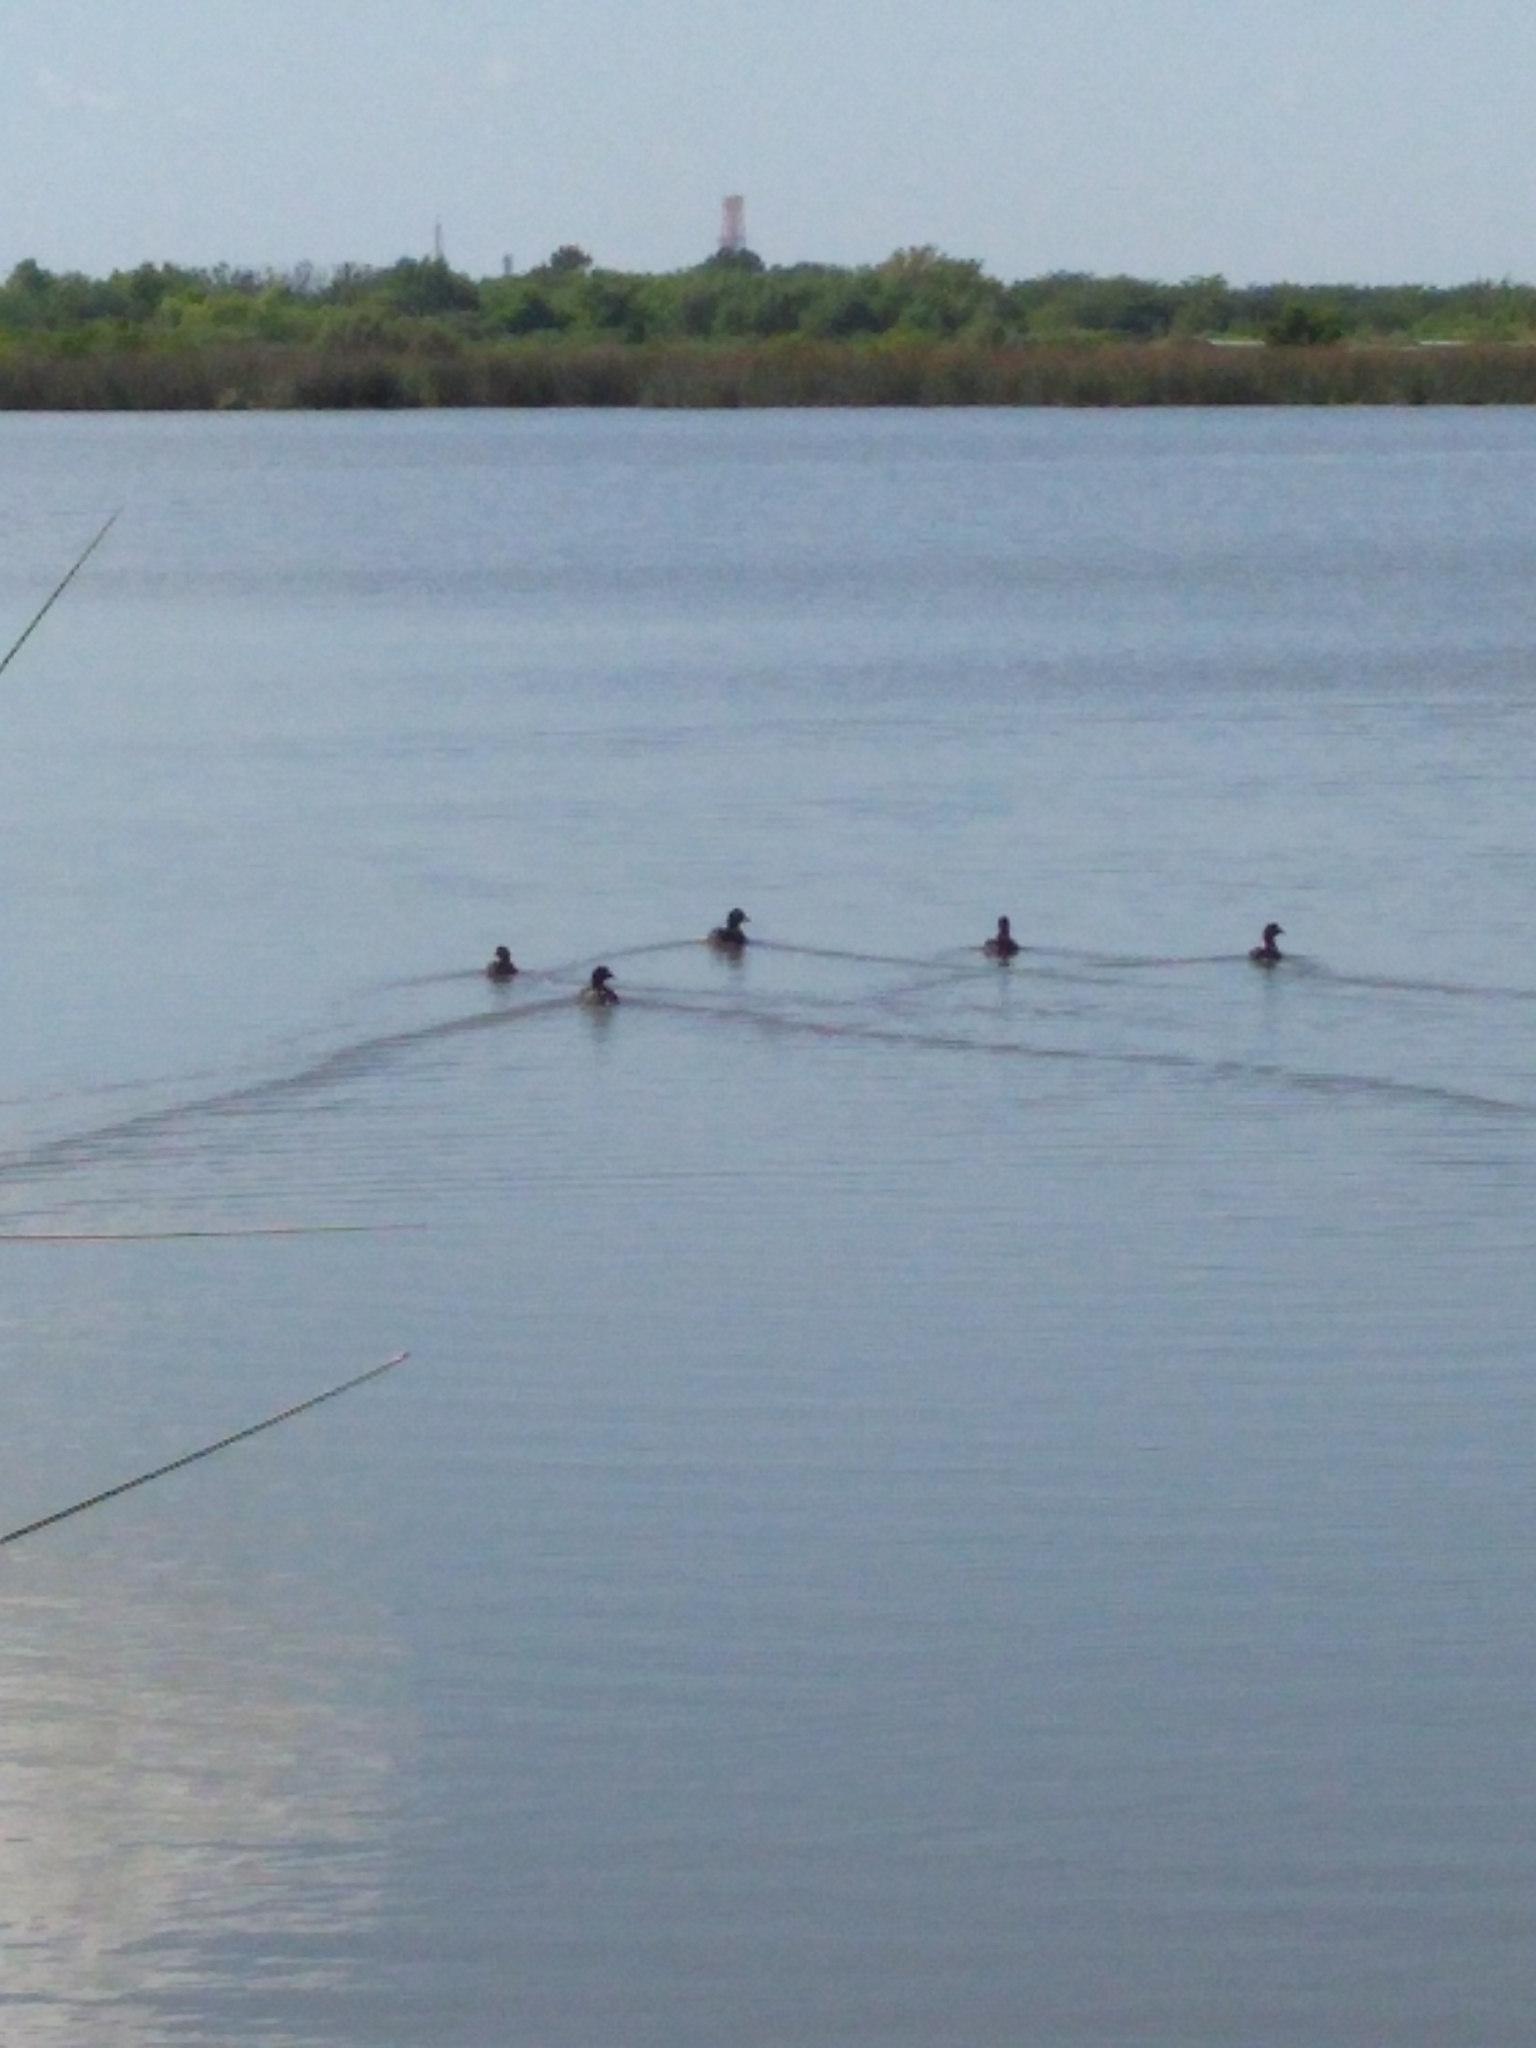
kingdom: Animalia
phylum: Chordata
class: Aves
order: Gruiformes
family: Rallidae
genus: Fulica
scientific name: Fulica rufifrons
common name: Red-fronted coot
